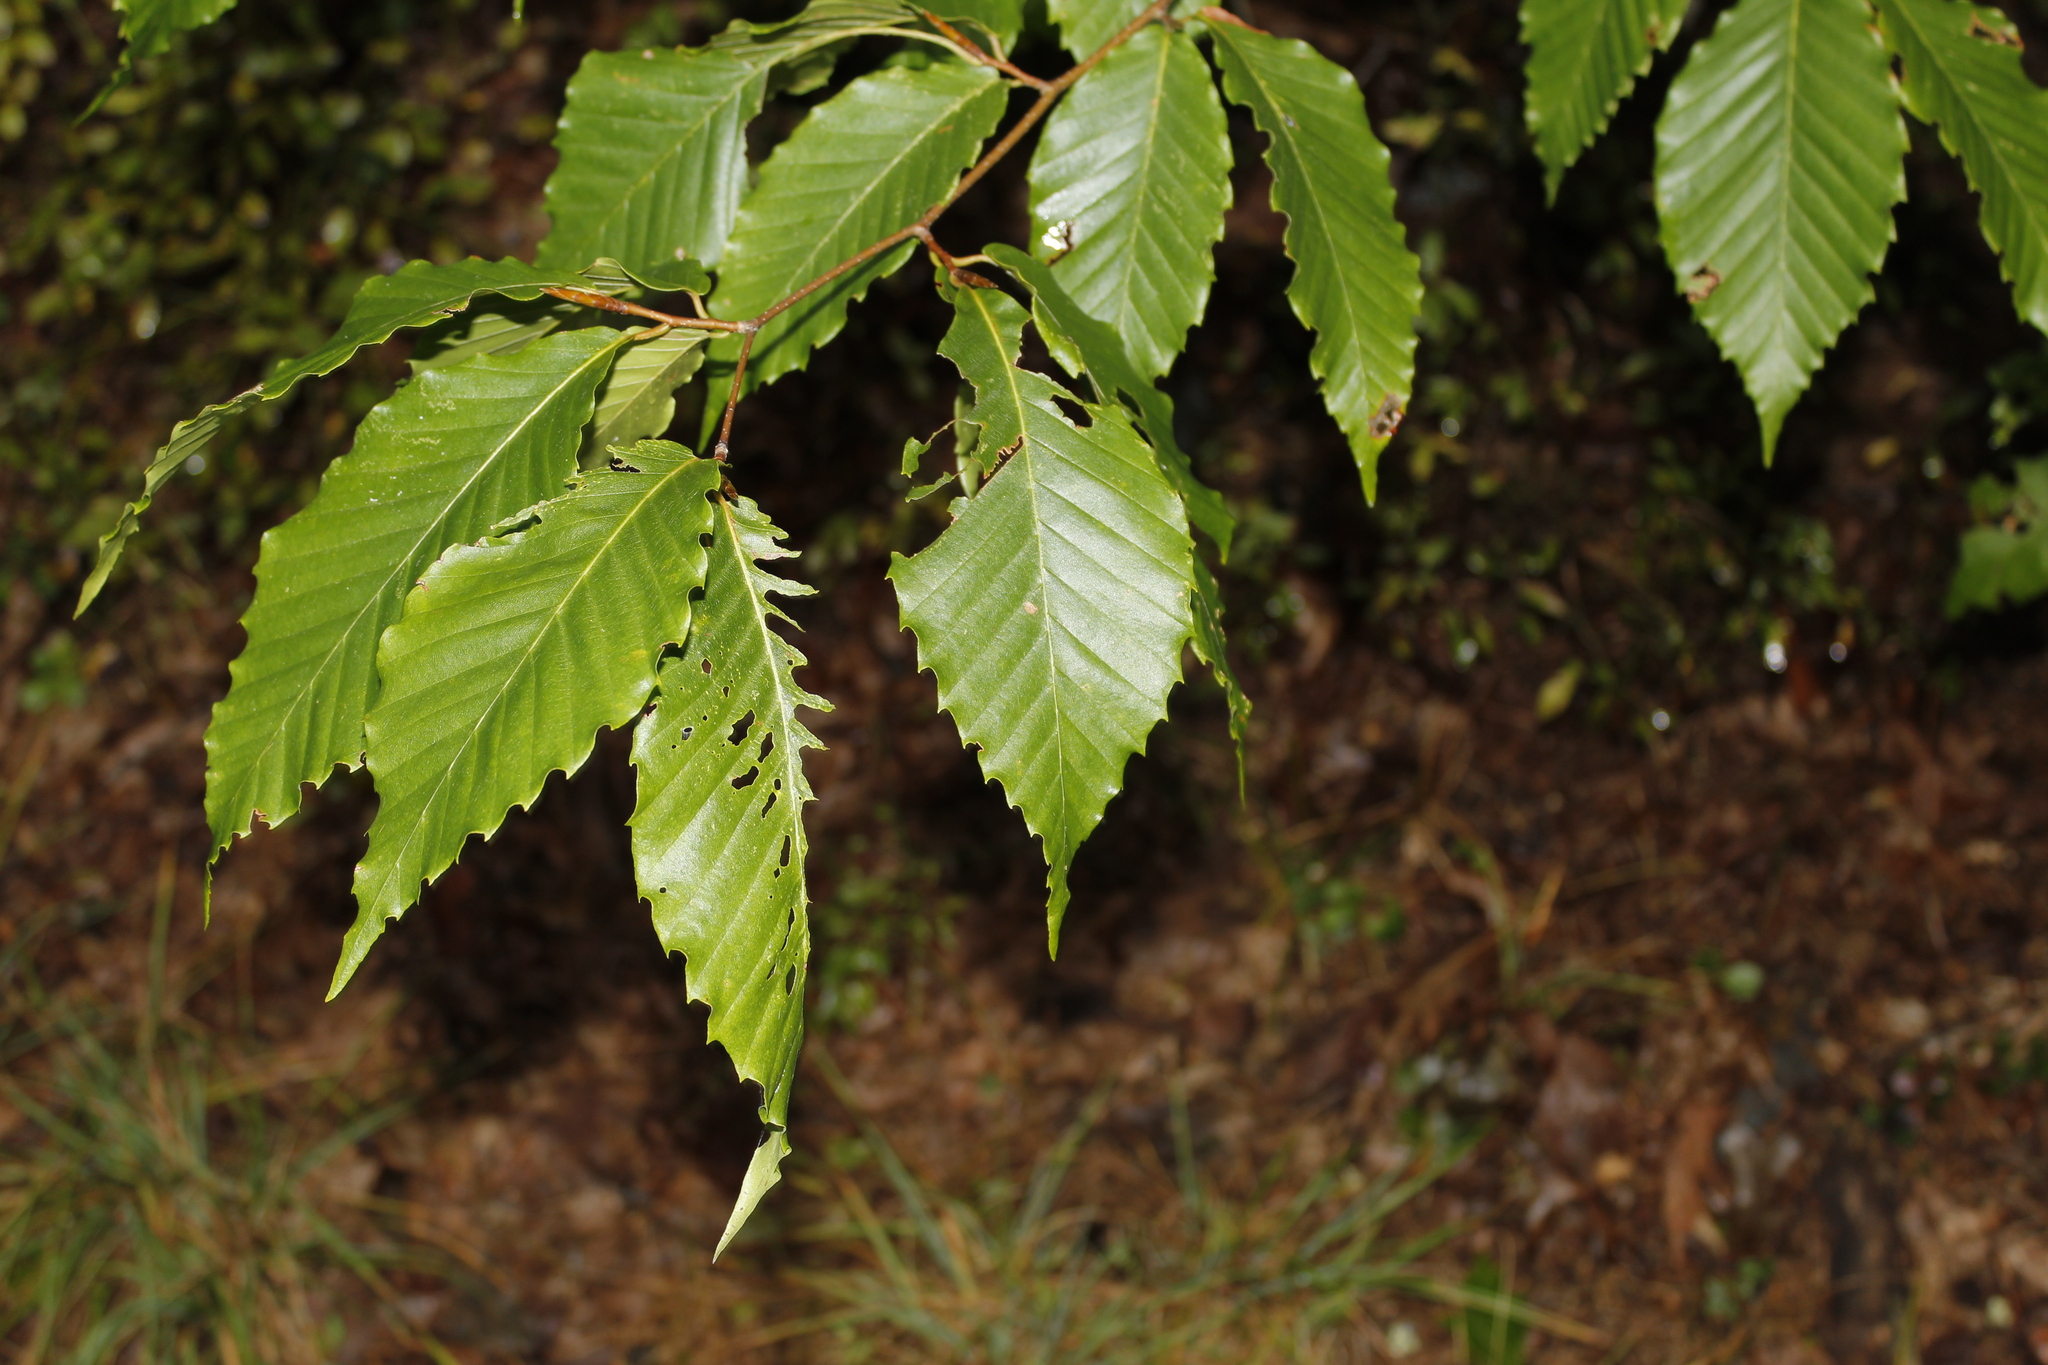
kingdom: Plantae
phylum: Tracheophyta
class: Magnoliopsida
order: Fagales
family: Fagaceae
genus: Fagus
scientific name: Fagus grandifolia
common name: American beech
